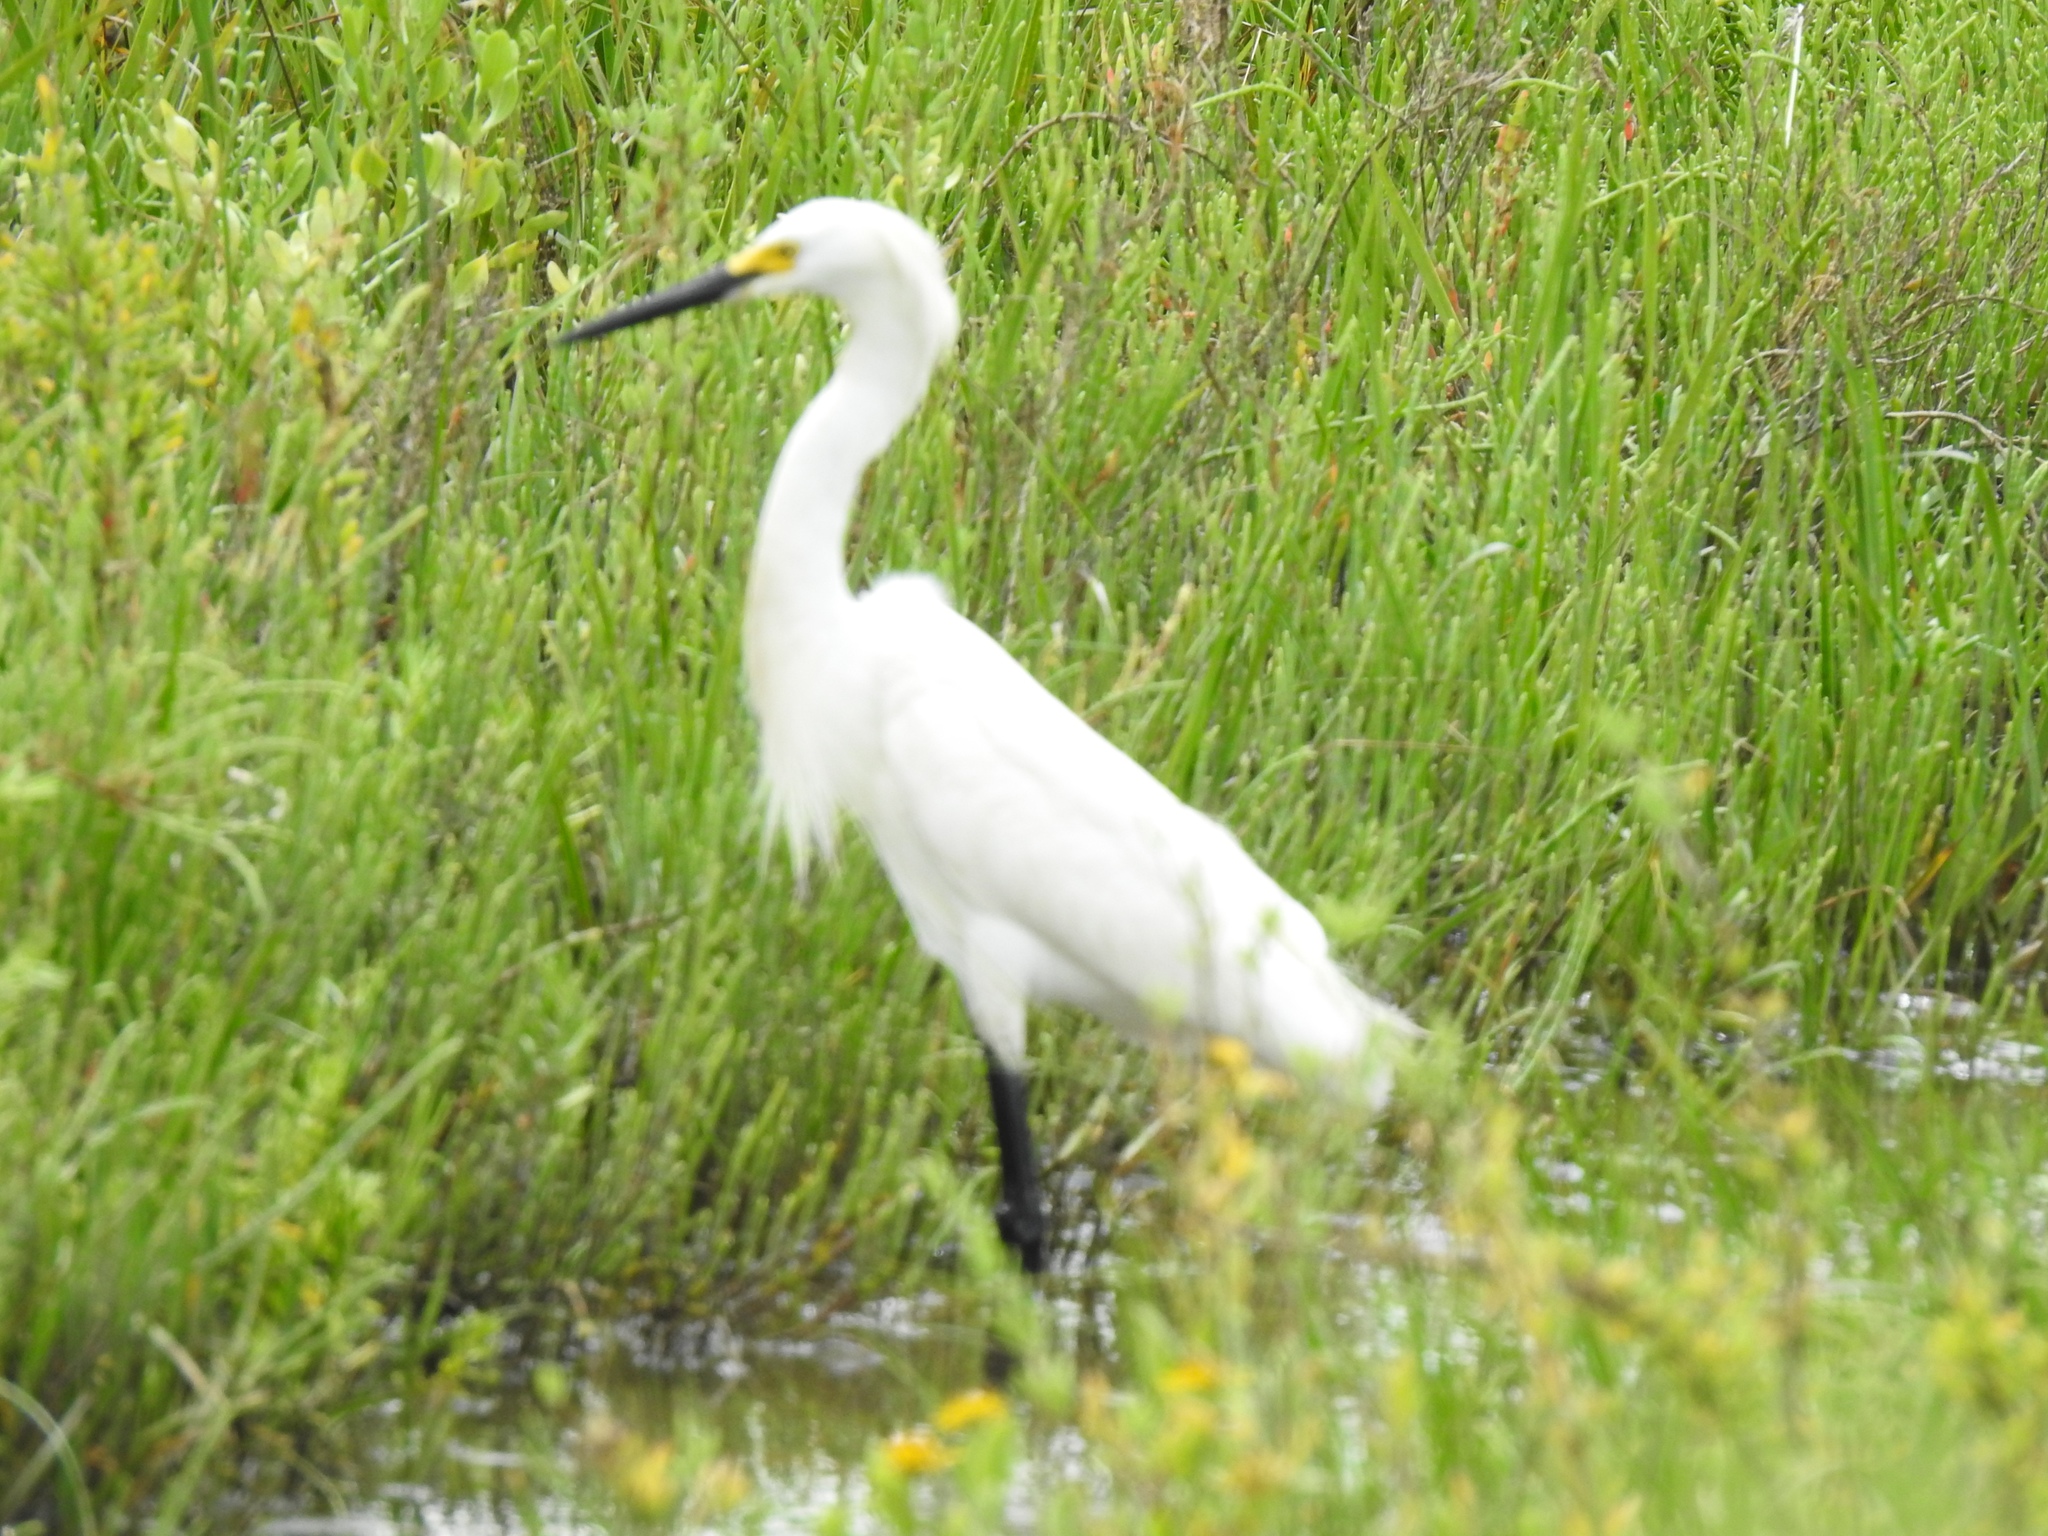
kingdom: Animalia
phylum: Chordata
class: Aves
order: Pelecaniformes
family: Ardeidae
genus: Egretta
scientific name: Egretta thula
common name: Snowy egret
